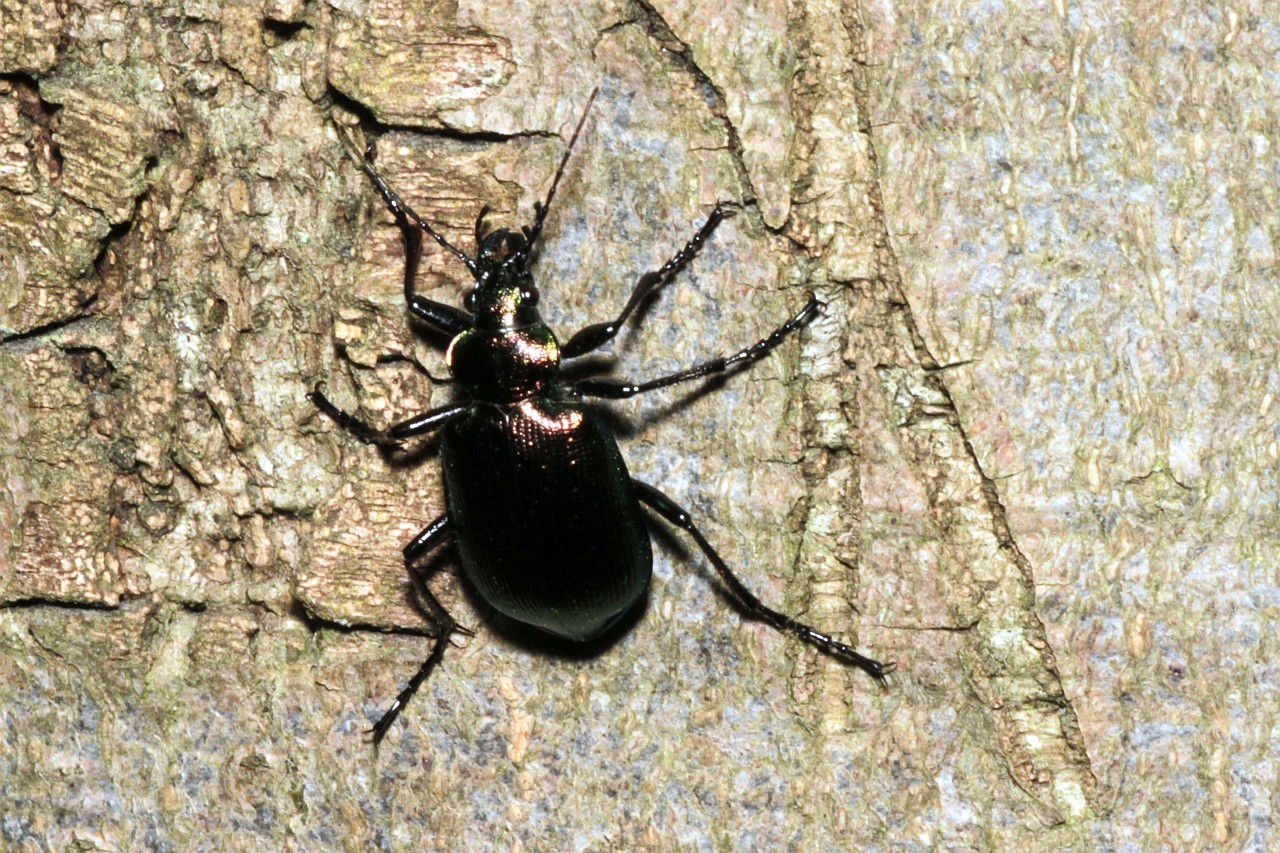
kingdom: Animalia
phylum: Arthropoda
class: Insecta
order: Coleoptera
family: Carabidae
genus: Calosoma
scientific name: Calosoma inquisitor
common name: Caterpillar-hunter
